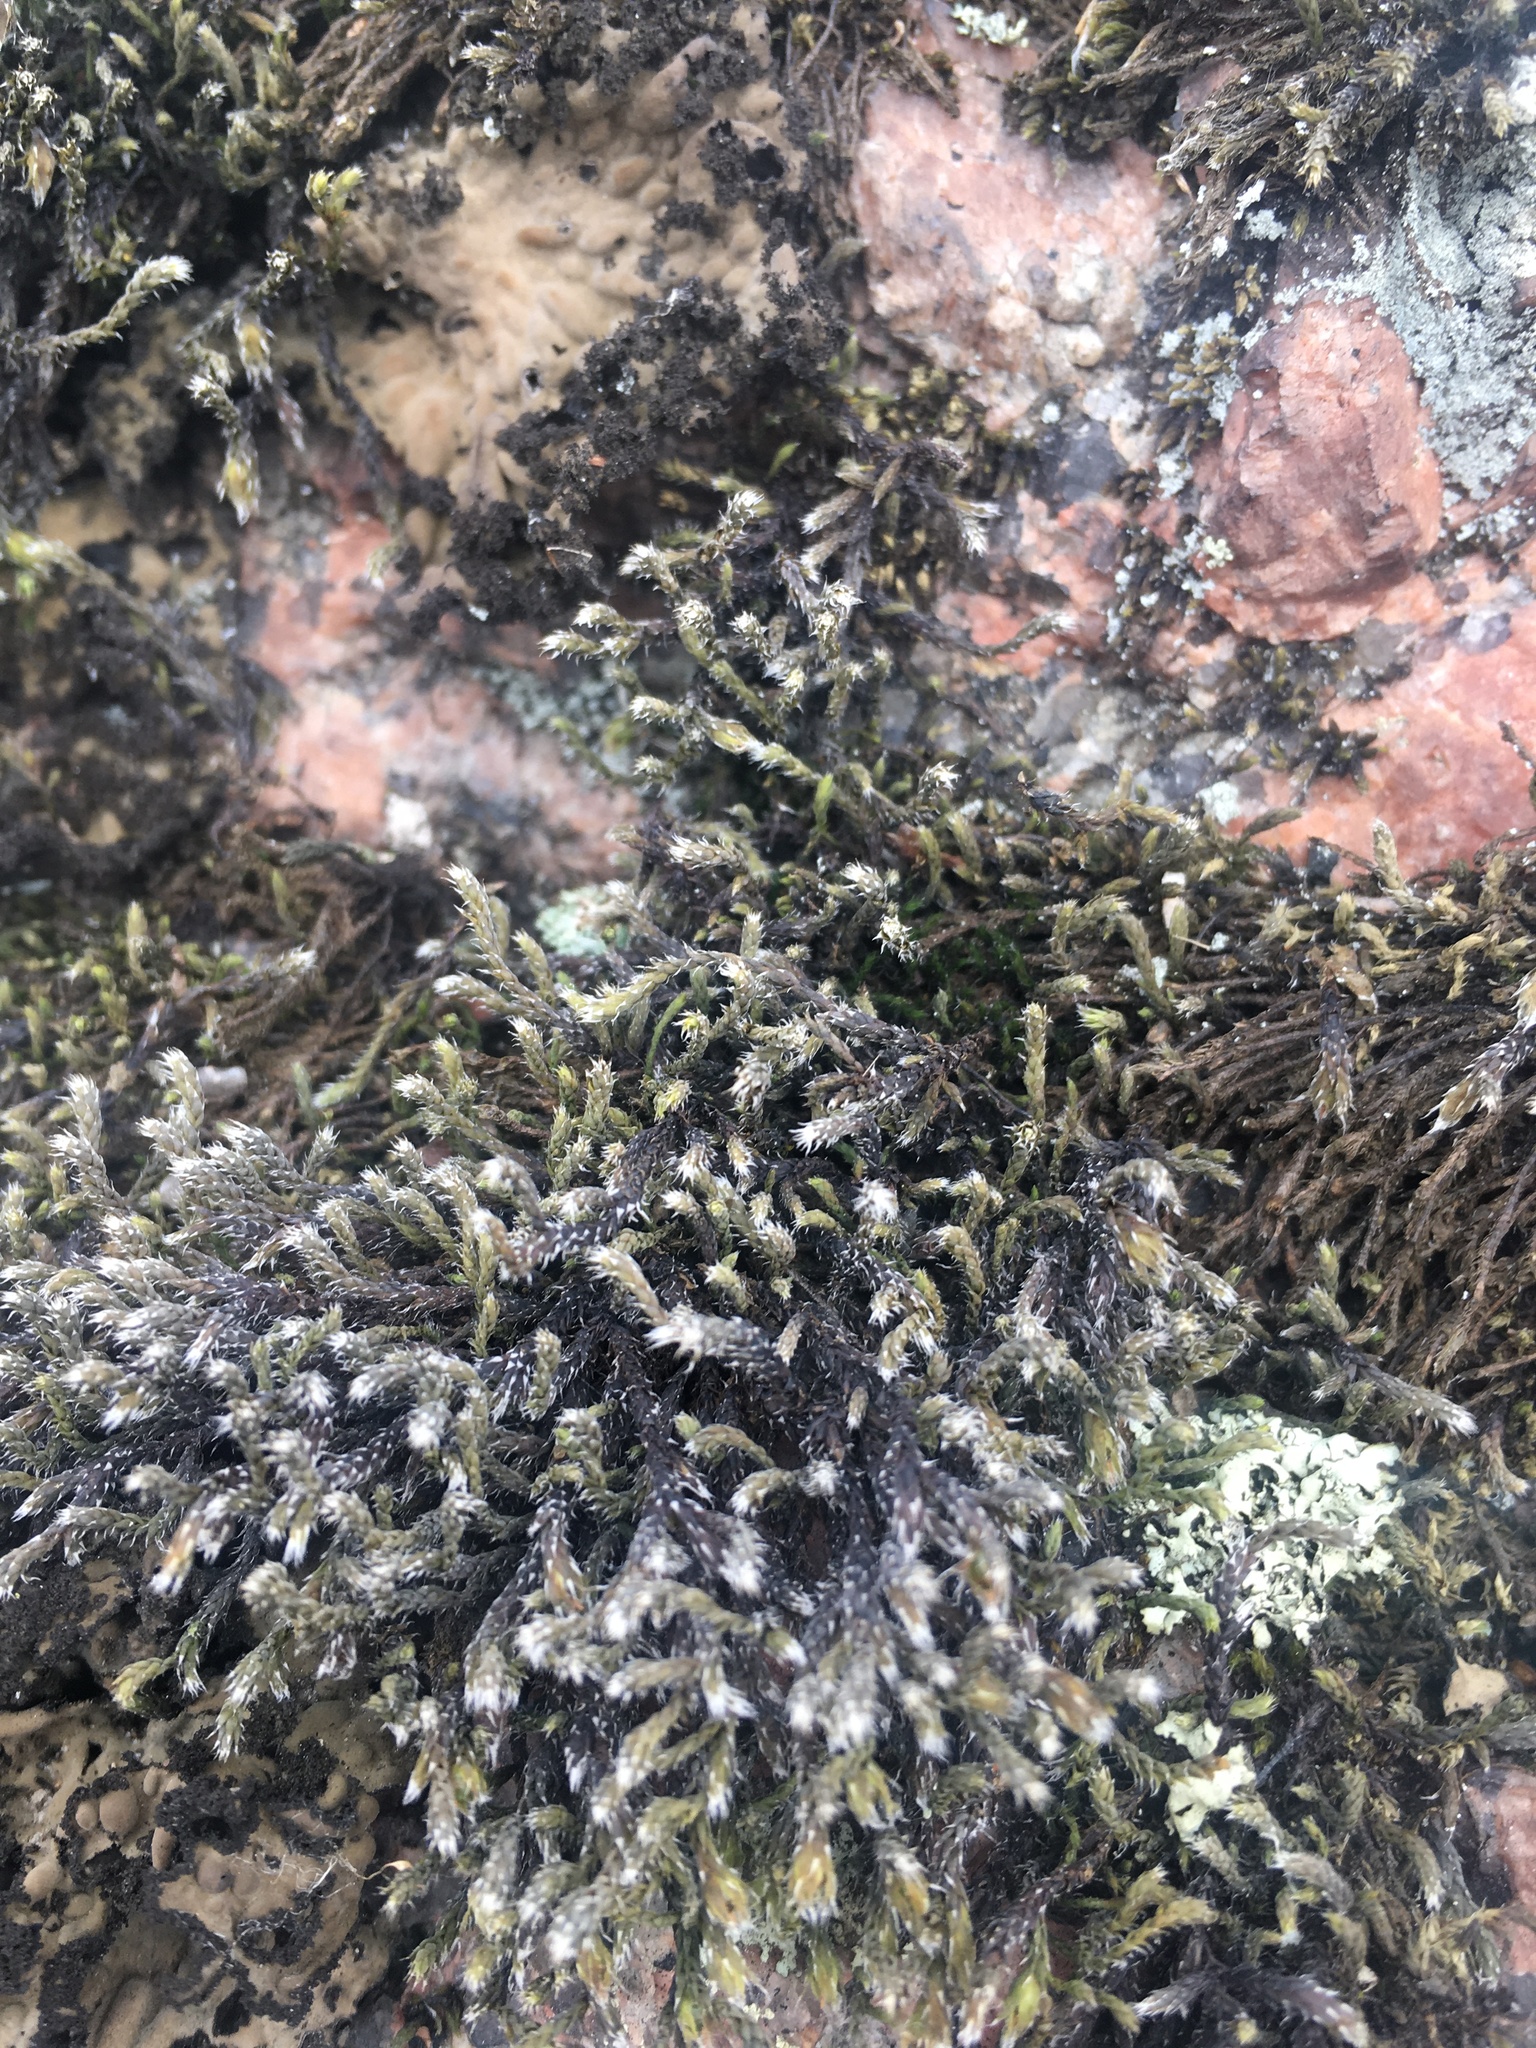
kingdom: Plantae
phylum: Bryophyta
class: Bryopsida
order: Hedwigiales
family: Hedwigiaceae
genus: Hedwigia
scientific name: Hedwigia emodica
